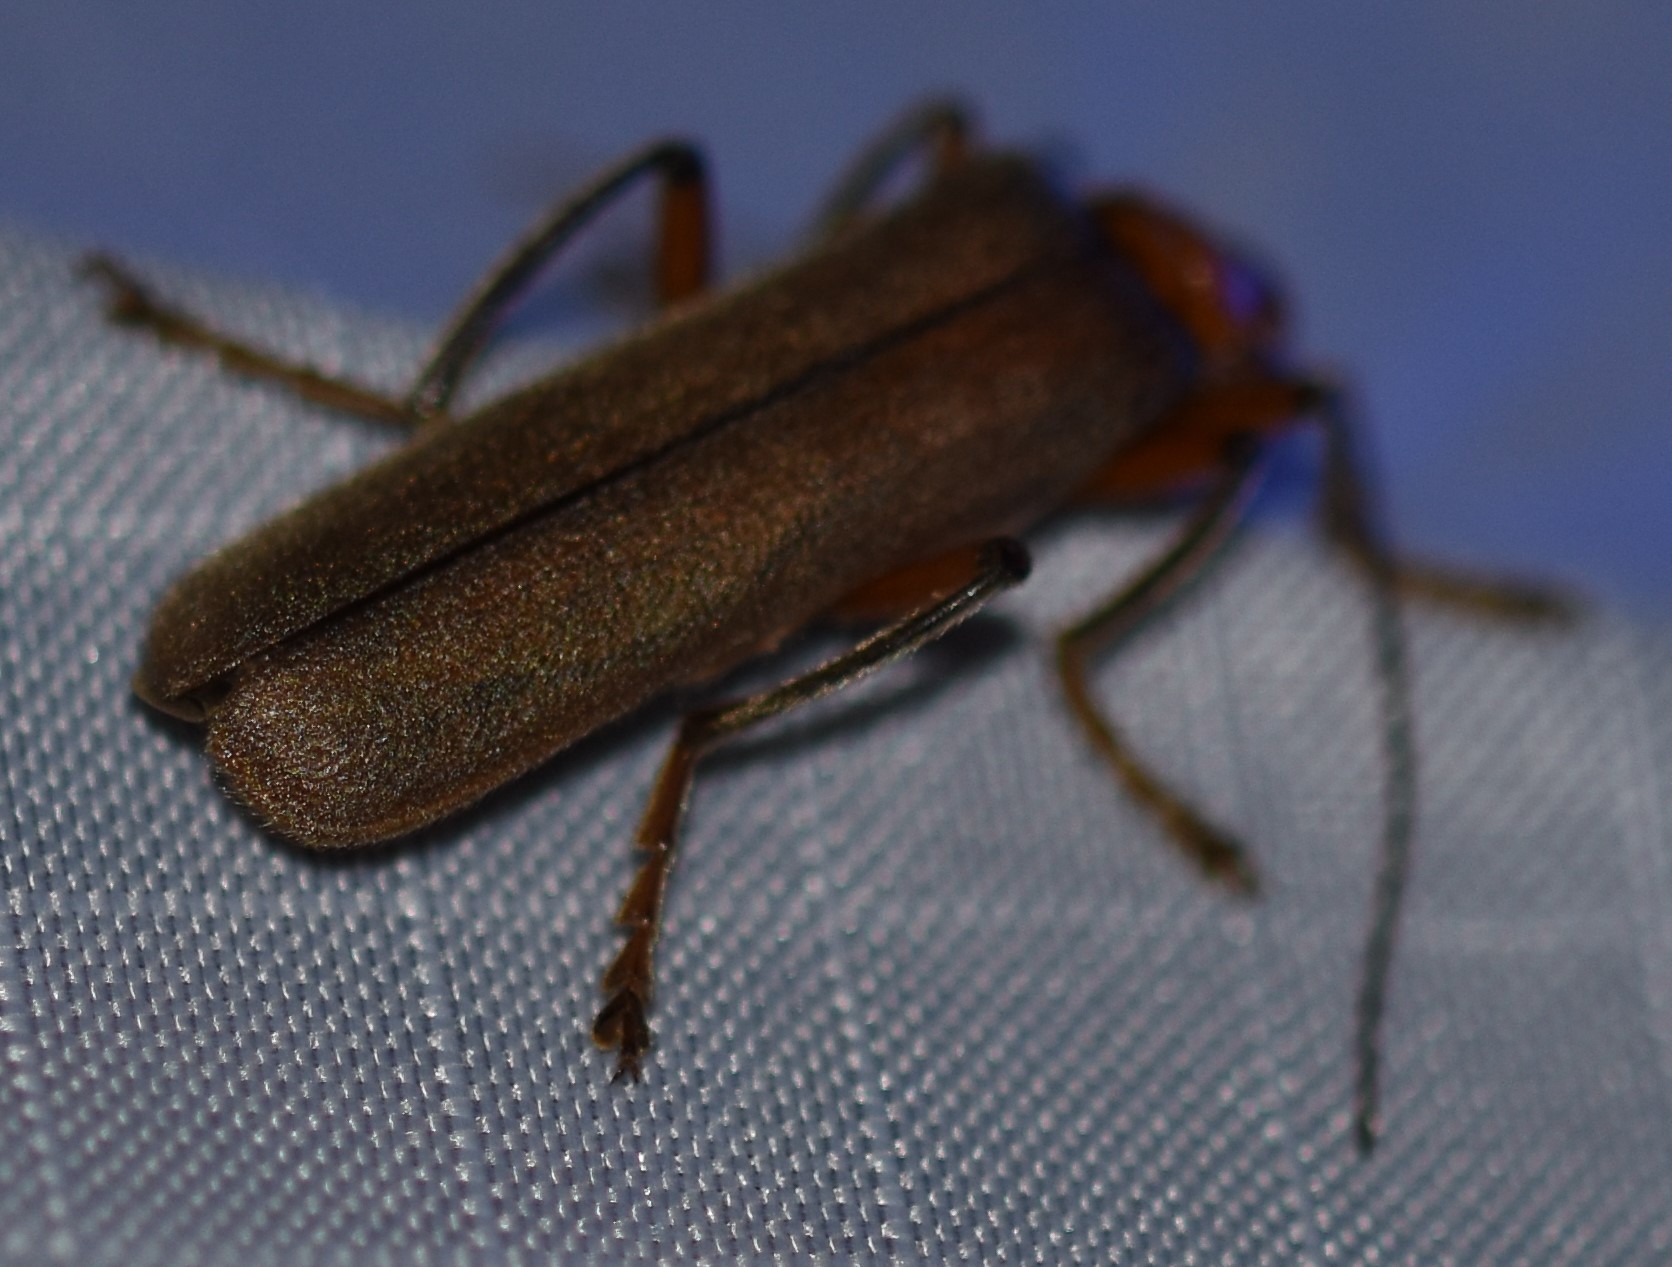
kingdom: Animalia
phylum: Arthropoda
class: Insecta
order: Coleoptera
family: Cantharidae
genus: Pacificanthia
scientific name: Pacificanthia consors
